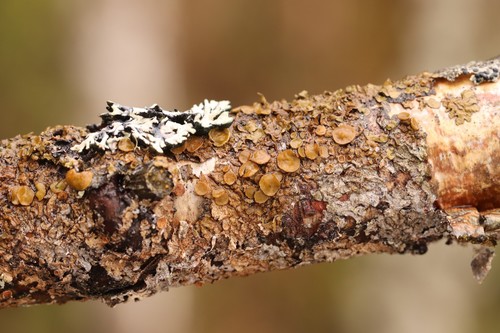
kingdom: Fungi
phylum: Ascomycota
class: Lecanoromycetes
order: Lecanorales
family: Parmeliaceae
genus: Melanohalea
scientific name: Melanohalea olivacea
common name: Spotted camouflage lichen
